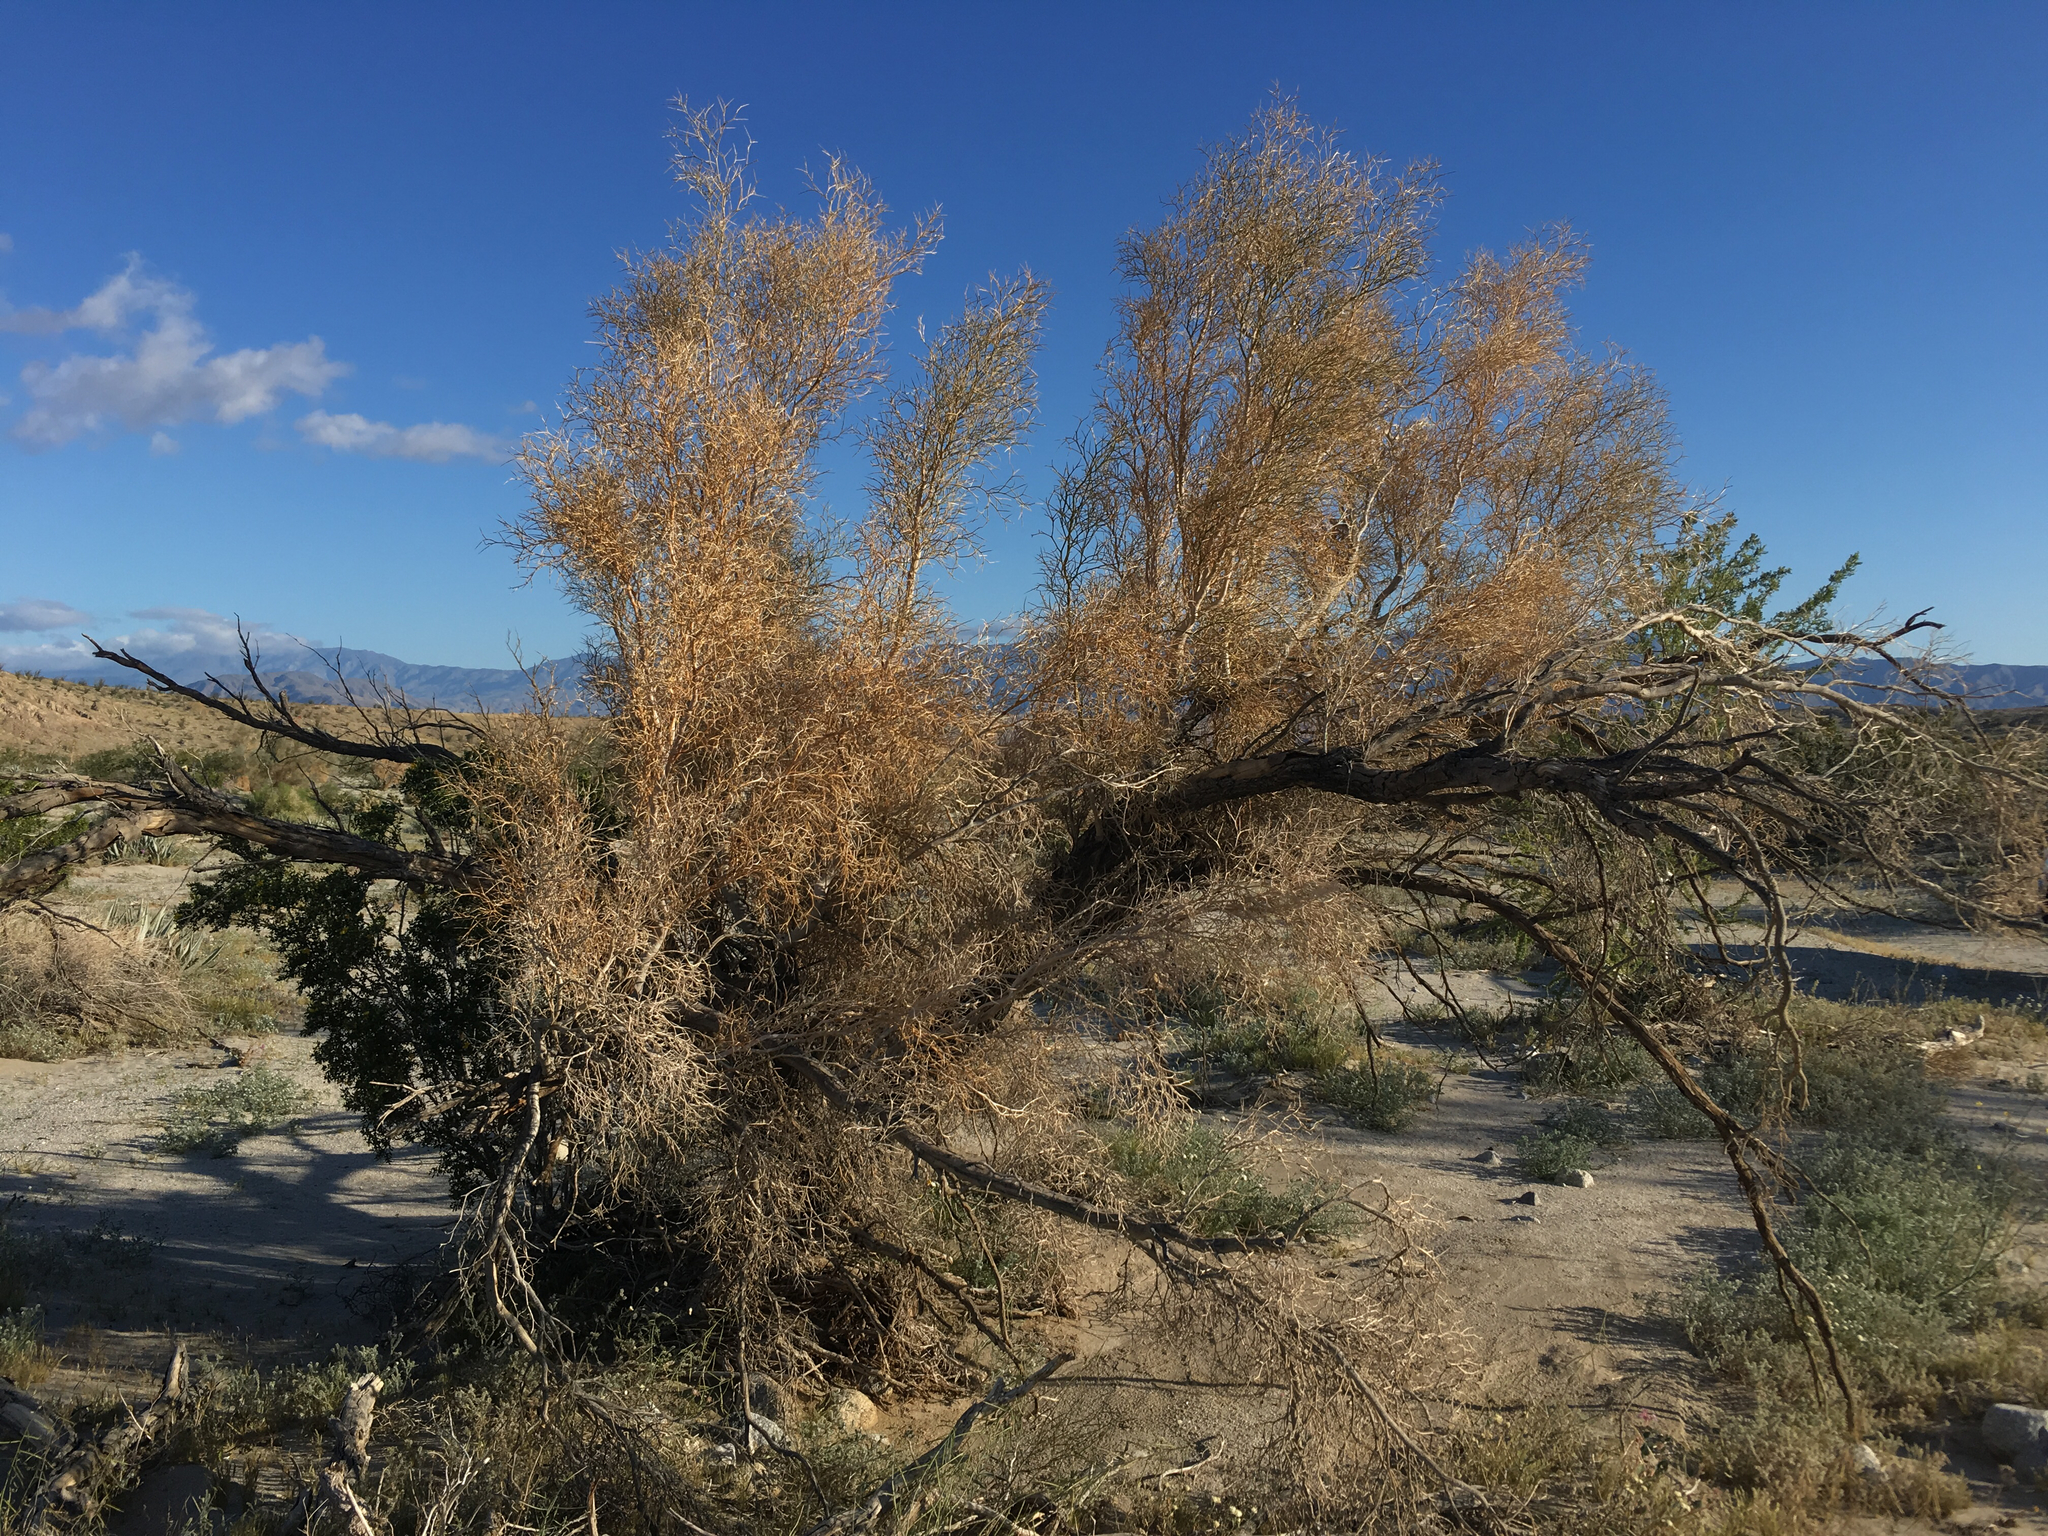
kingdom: Plantae
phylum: Tracheophyta
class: Magnoliopsida
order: Fabales
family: Fabaceae
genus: Psorothamnus
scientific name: Psorothamnus spinosus
